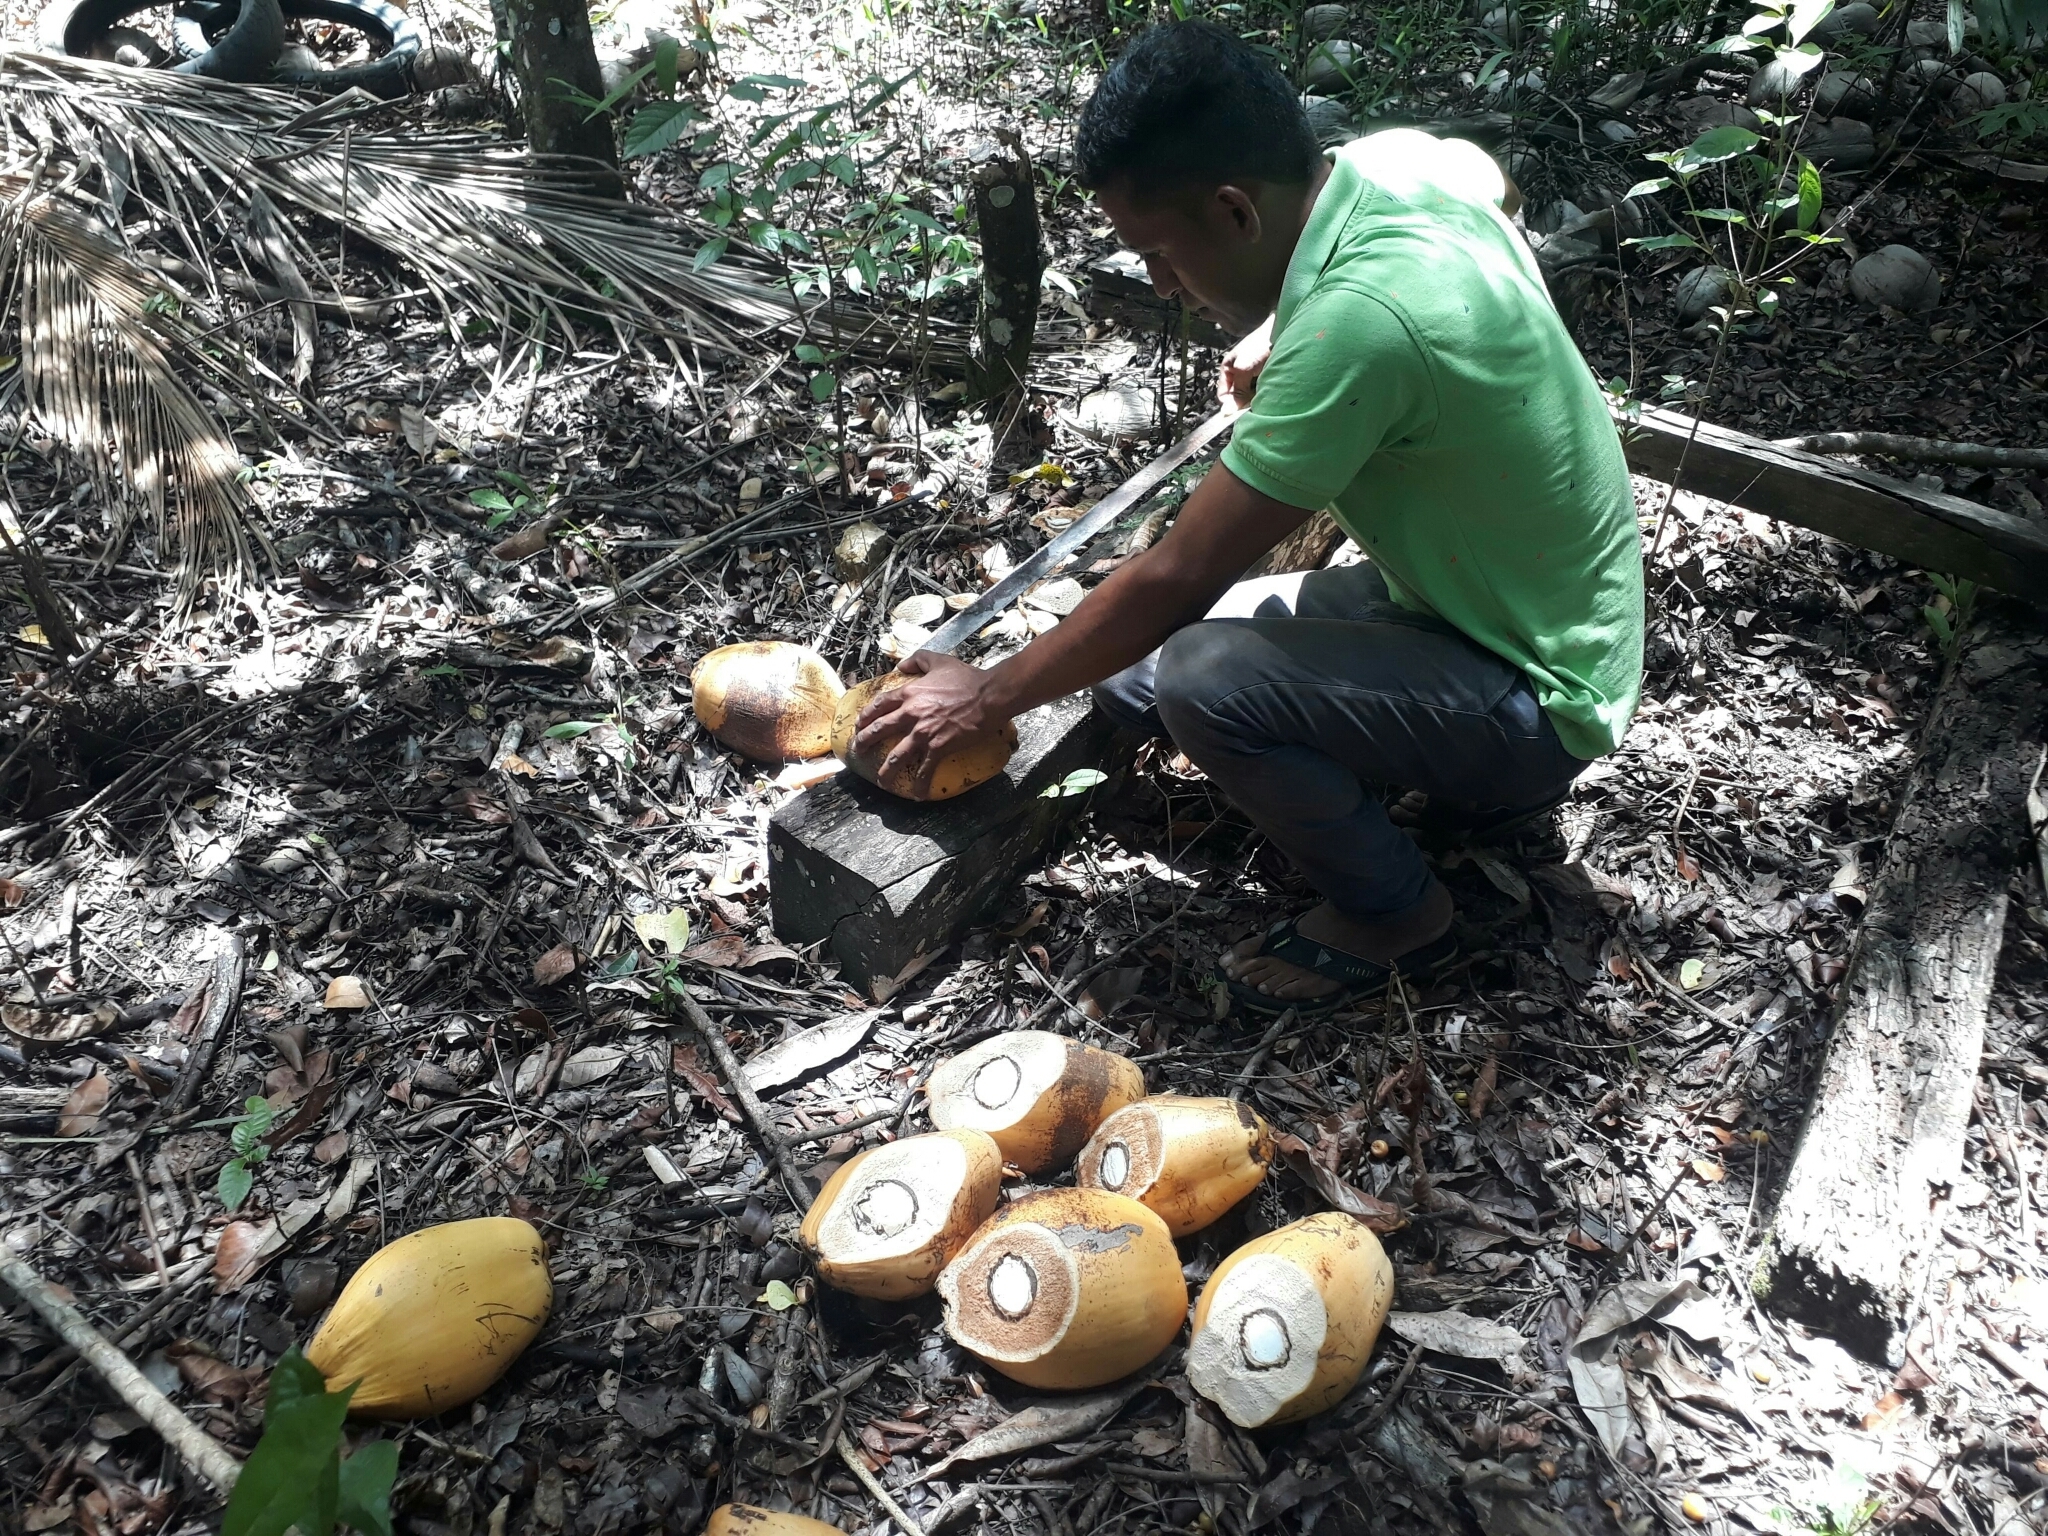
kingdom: Plantae
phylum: Tracheophyta
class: Liliopsida
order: Arecales
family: Arecaceae
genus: Cocos
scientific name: Cocos nucifera
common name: Coconut palm
